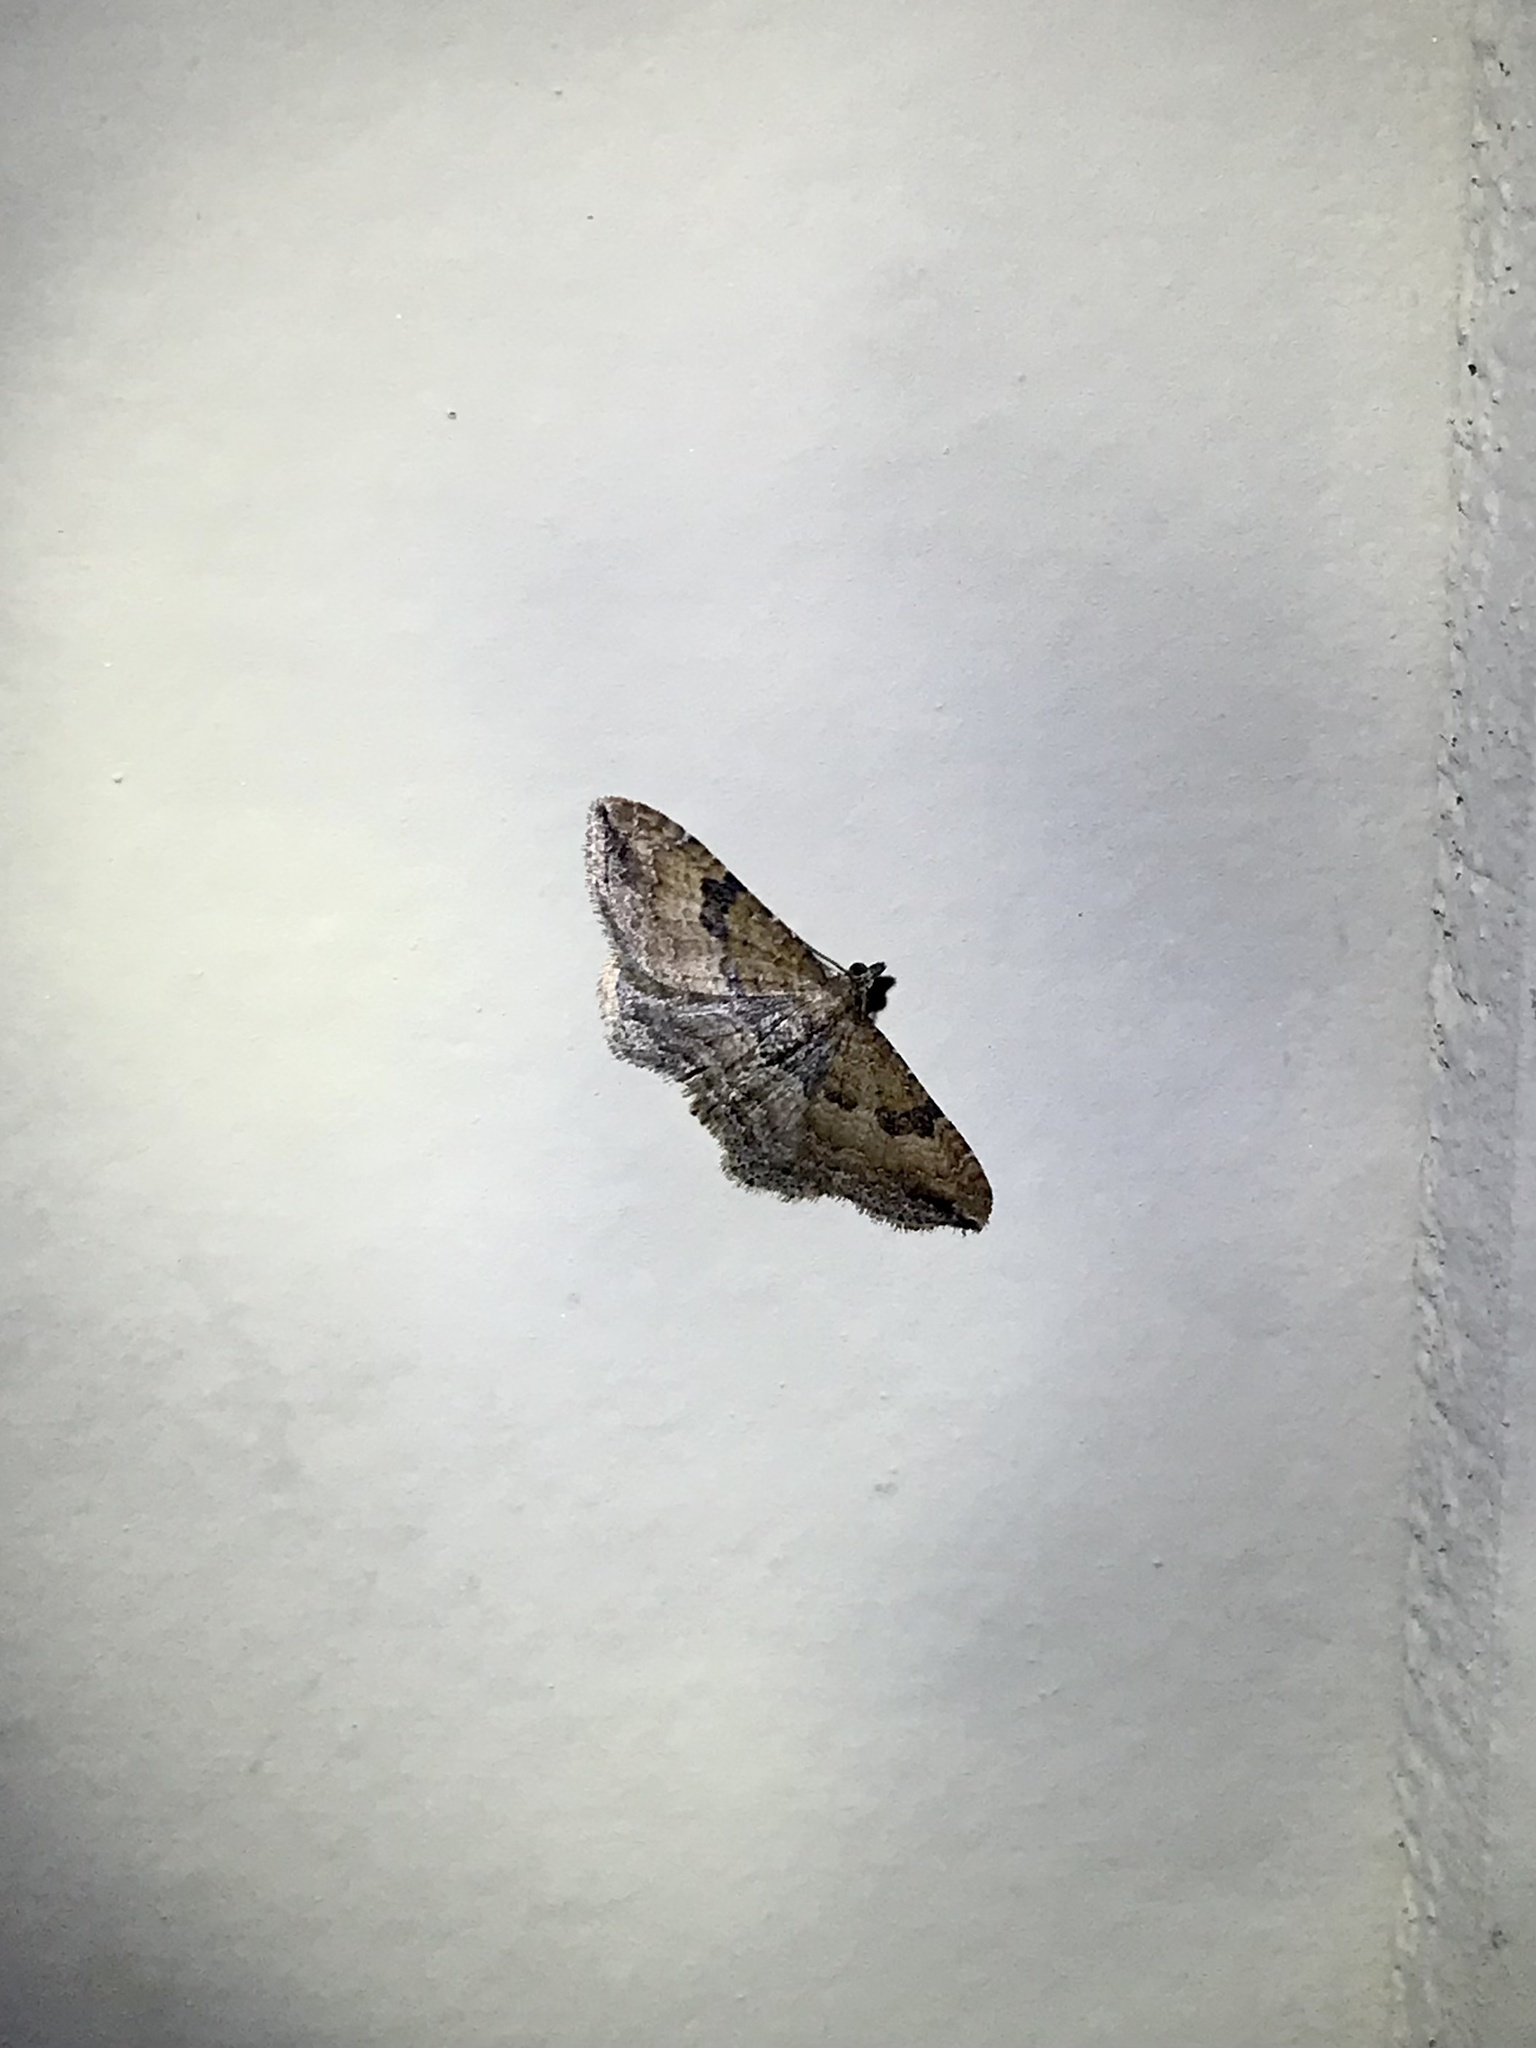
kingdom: Animalia
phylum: Arthropoda
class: Insecta
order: Lepidoptera
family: Geometridae
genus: Orthonama
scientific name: Orthonama obstipata
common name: The gem
